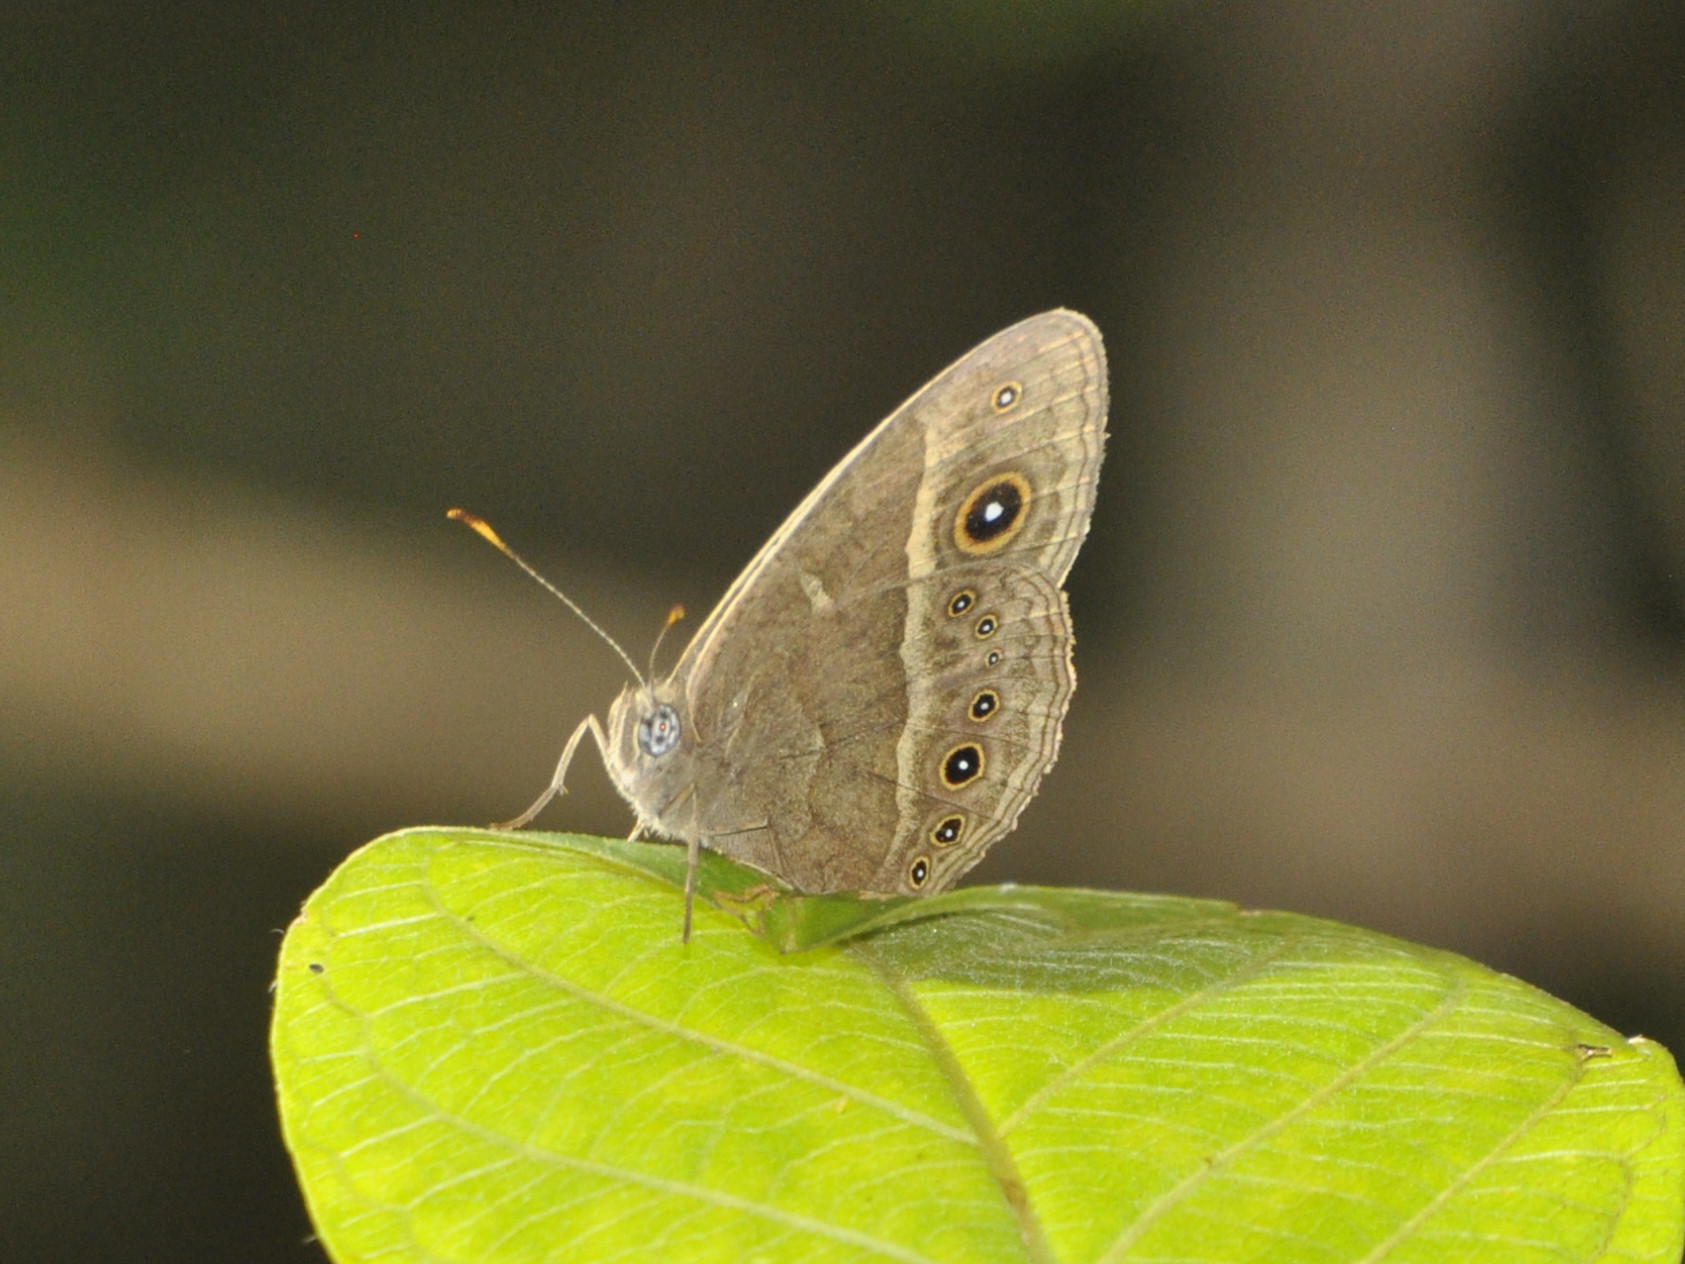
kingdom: Animalia
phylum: Arthropoda
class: Insecta
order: Lepidoptera
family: Nymphalidae
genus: Mycalesis
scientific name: Mycalesis anynana
